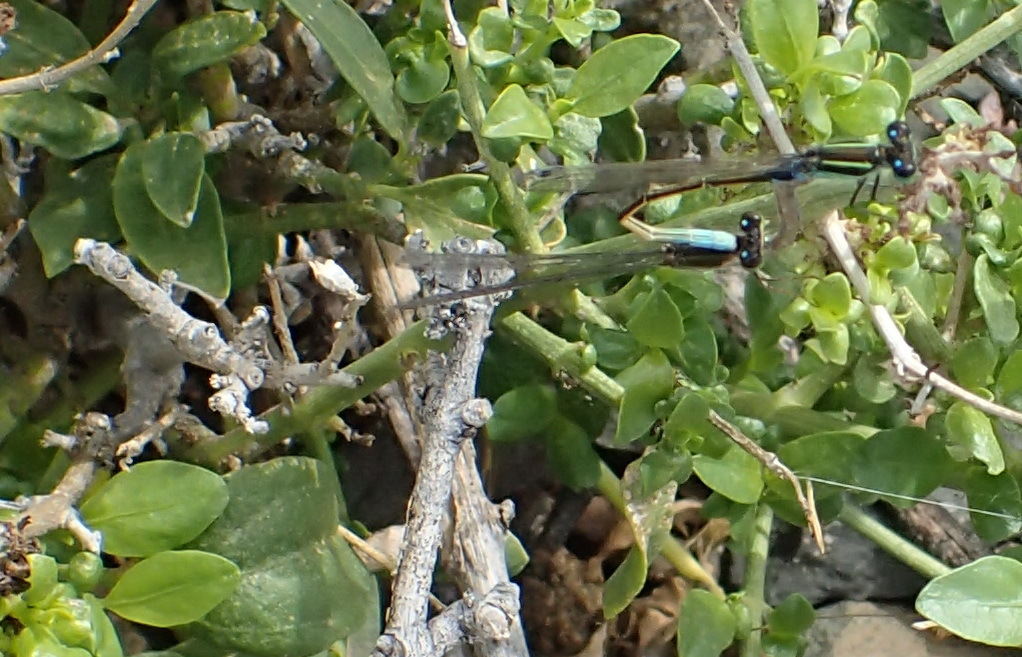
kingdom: Animalia
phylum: Arthropoda
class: Insecta
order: Odonata
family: Coenagrionidae
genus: Ischnura
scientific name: Ischnura senegalensis
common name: Tropical bluetail
